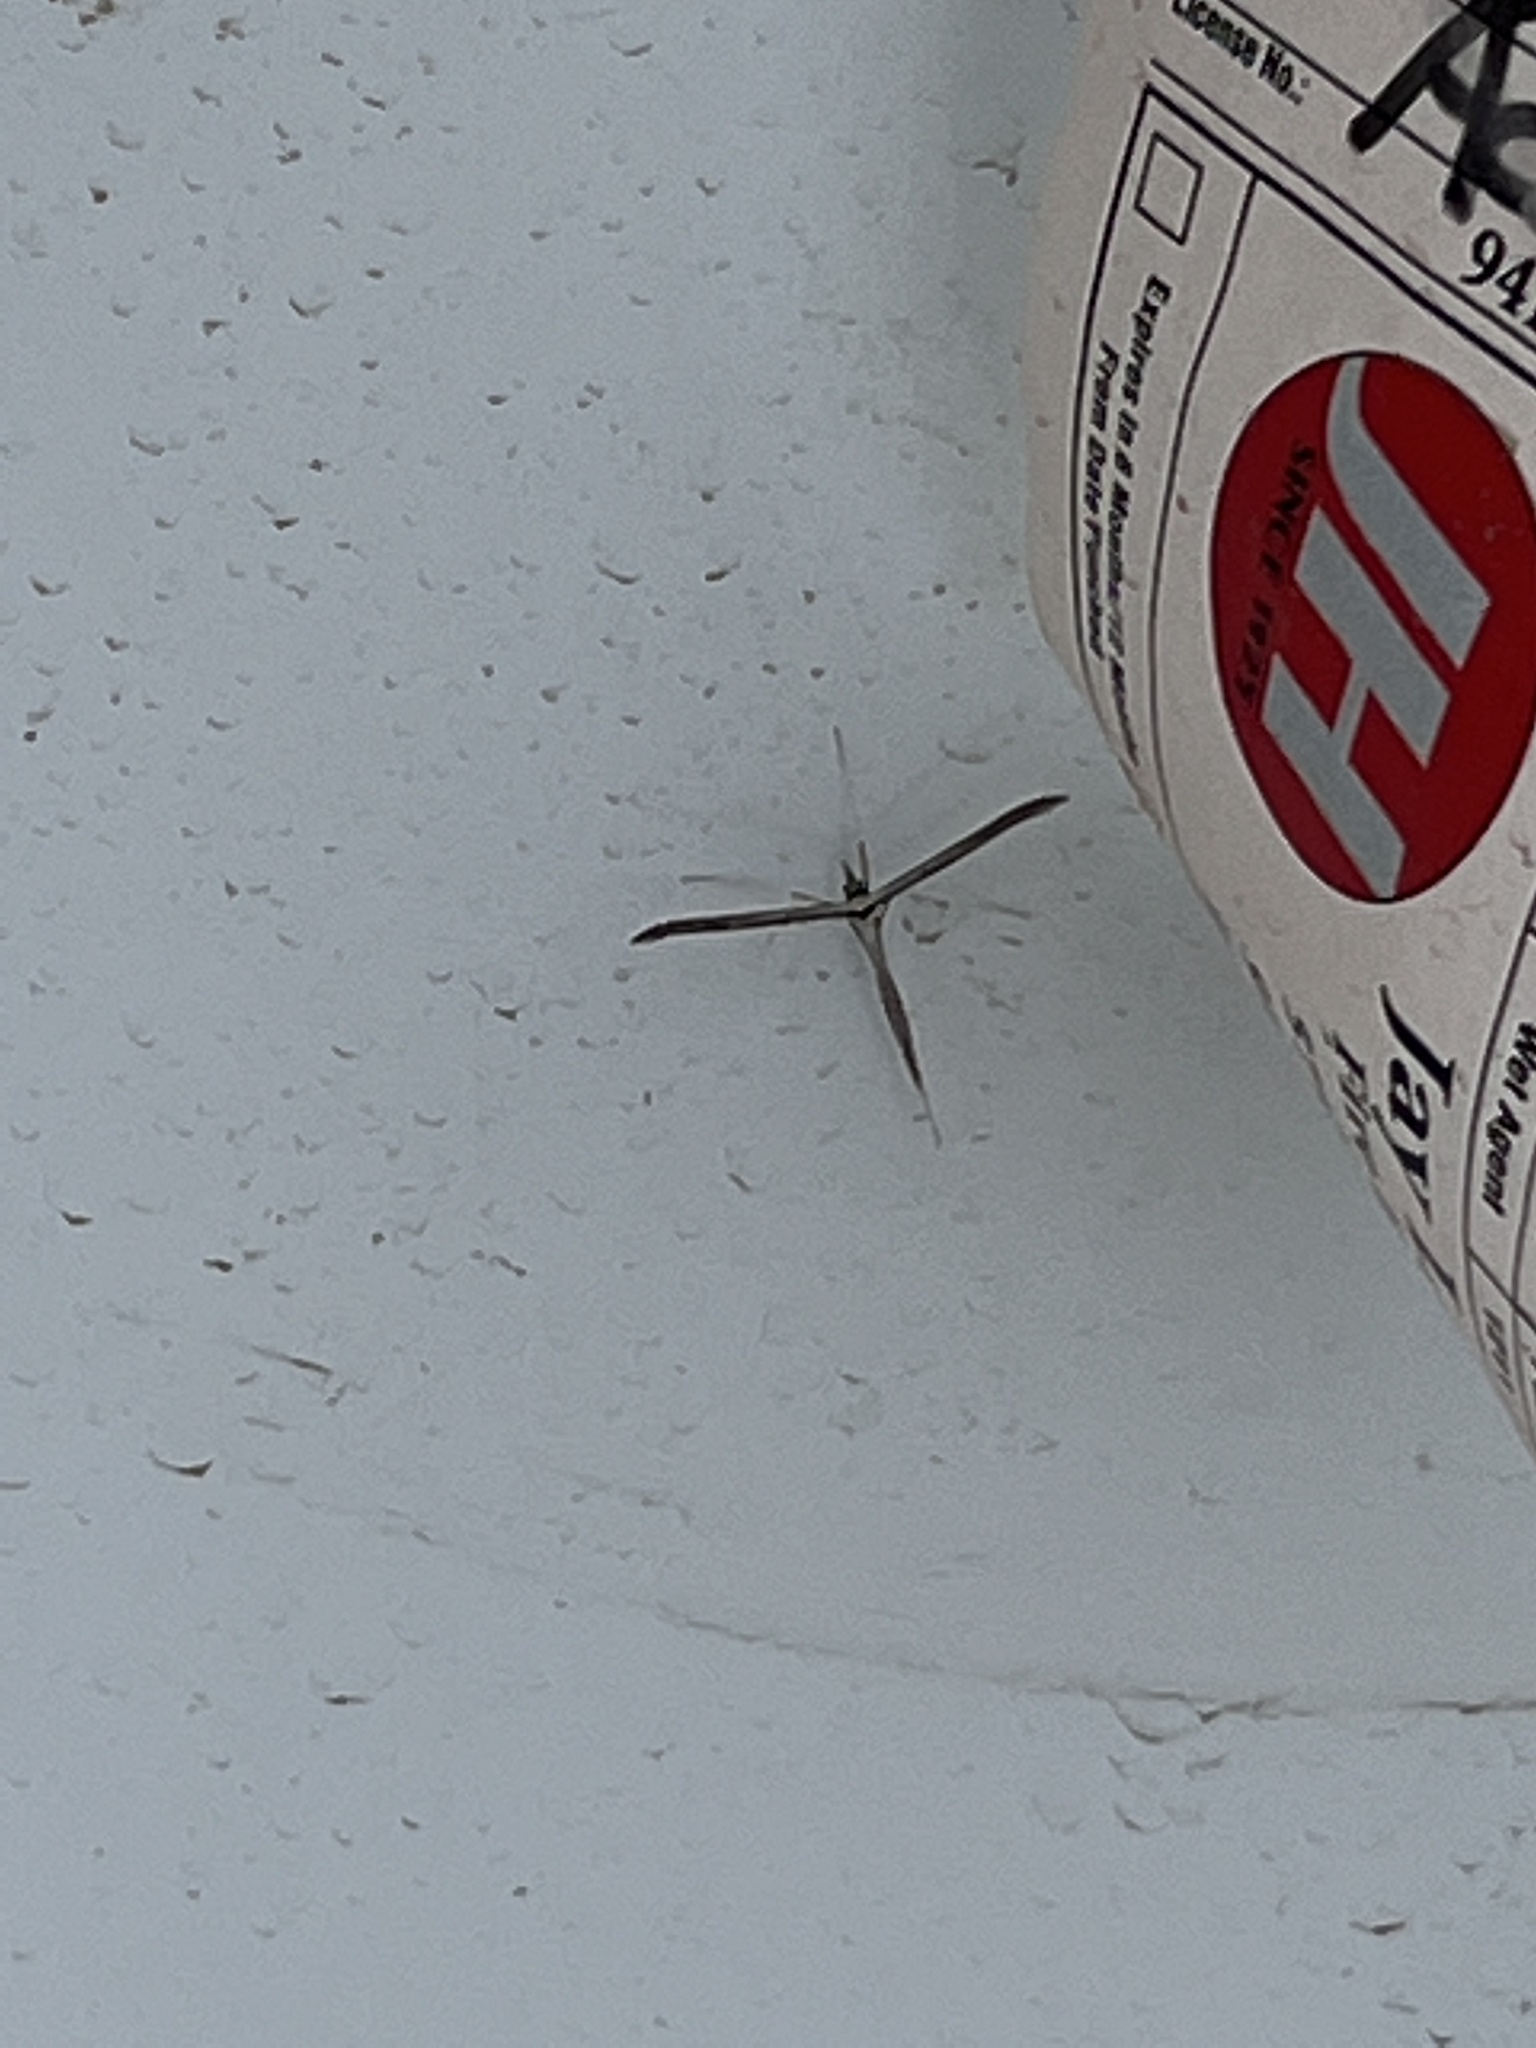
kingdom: Animalia
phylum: Arthropoda
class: Insecta
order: Lepidoptera
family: Pterophoridae
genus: Hellinsia
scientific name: Hellinsia longifrons
